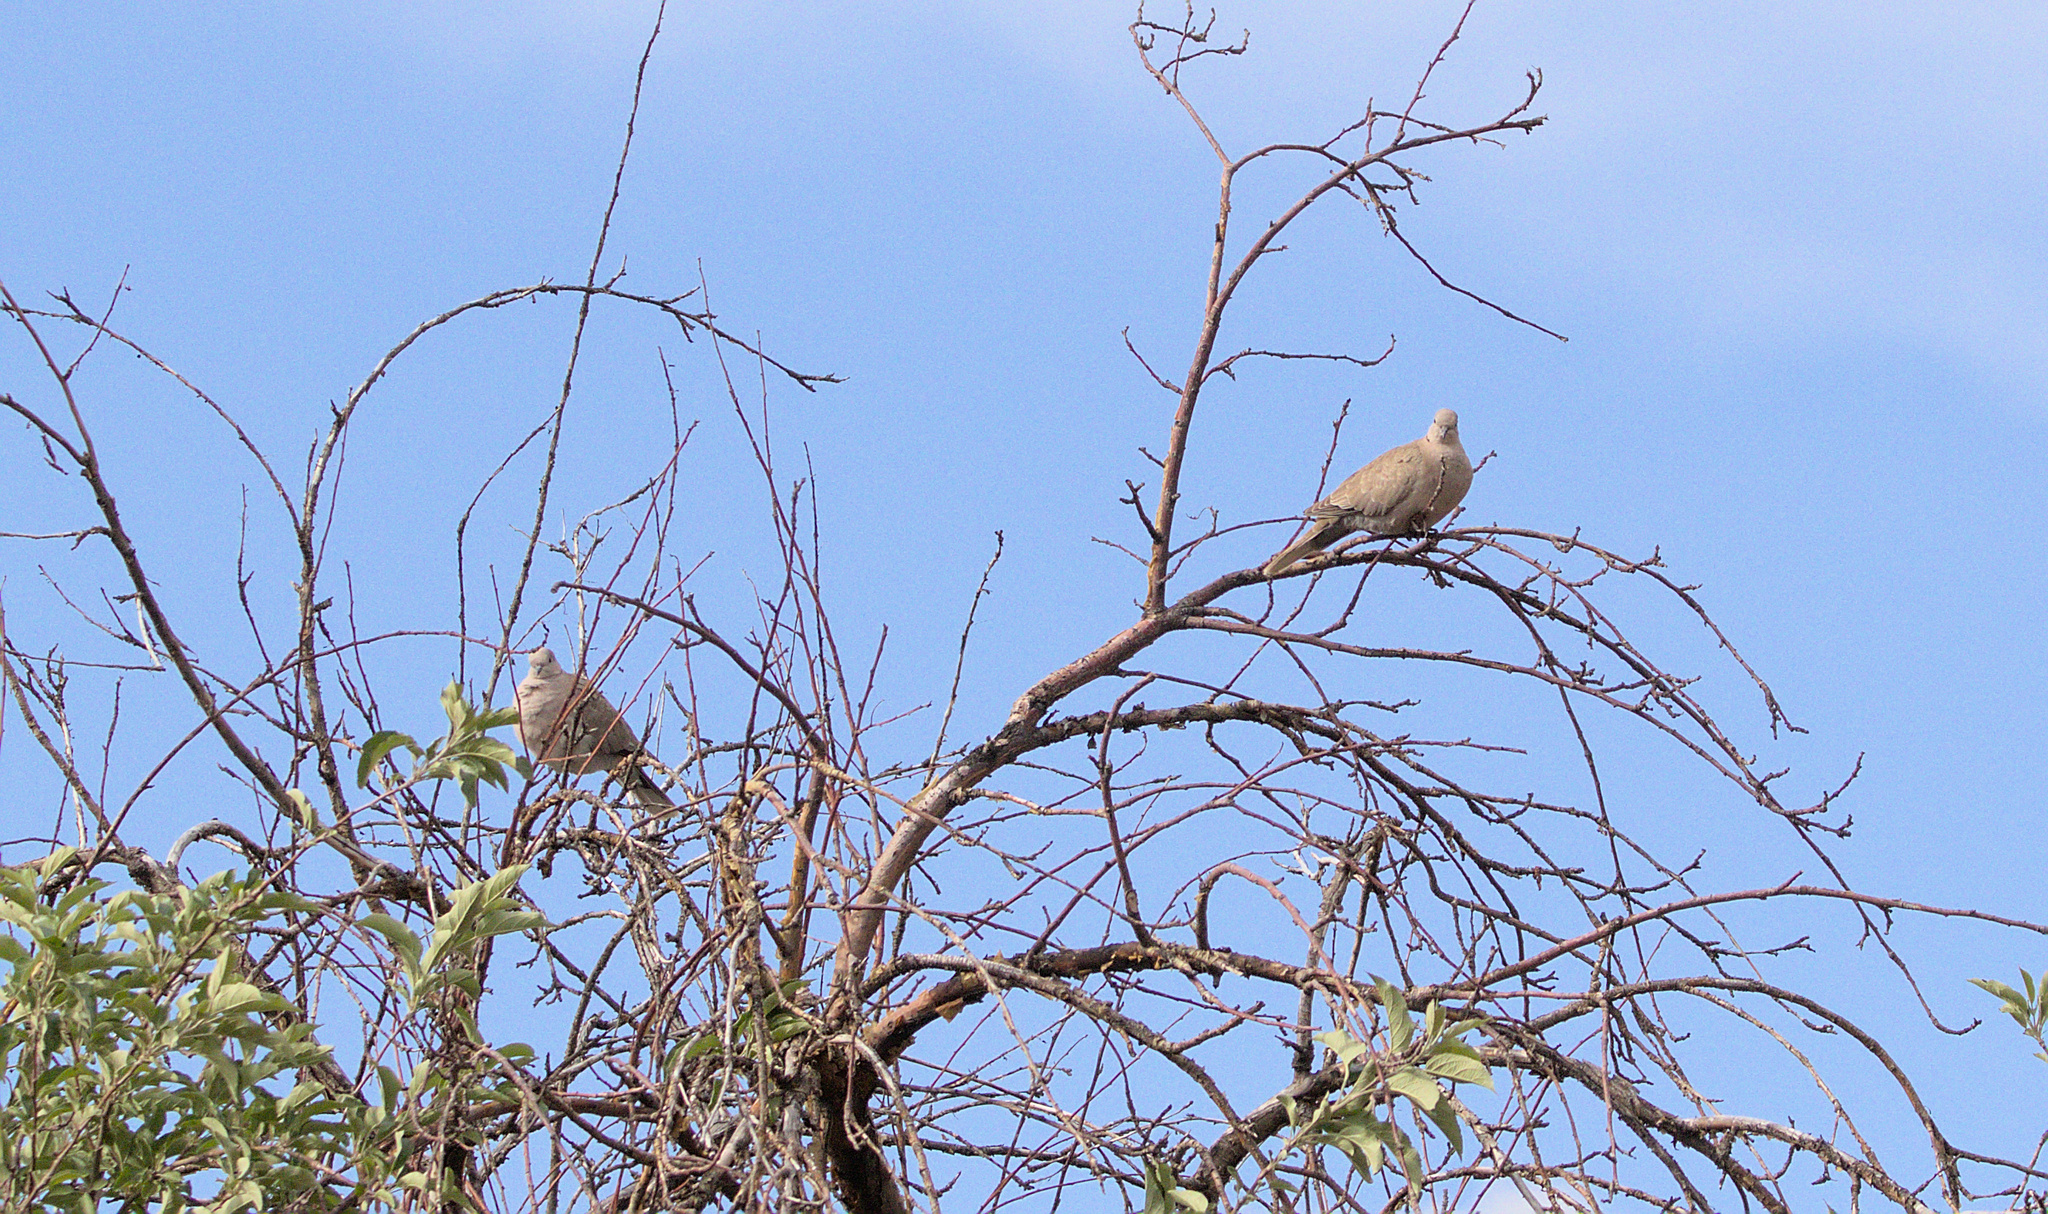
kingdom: Animalia
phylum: Chordata
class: Aves
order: Columbiformes
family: Columbidae
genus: Streptopelia
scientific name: Streptopelia decaocto
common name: Eurasian collared dove
